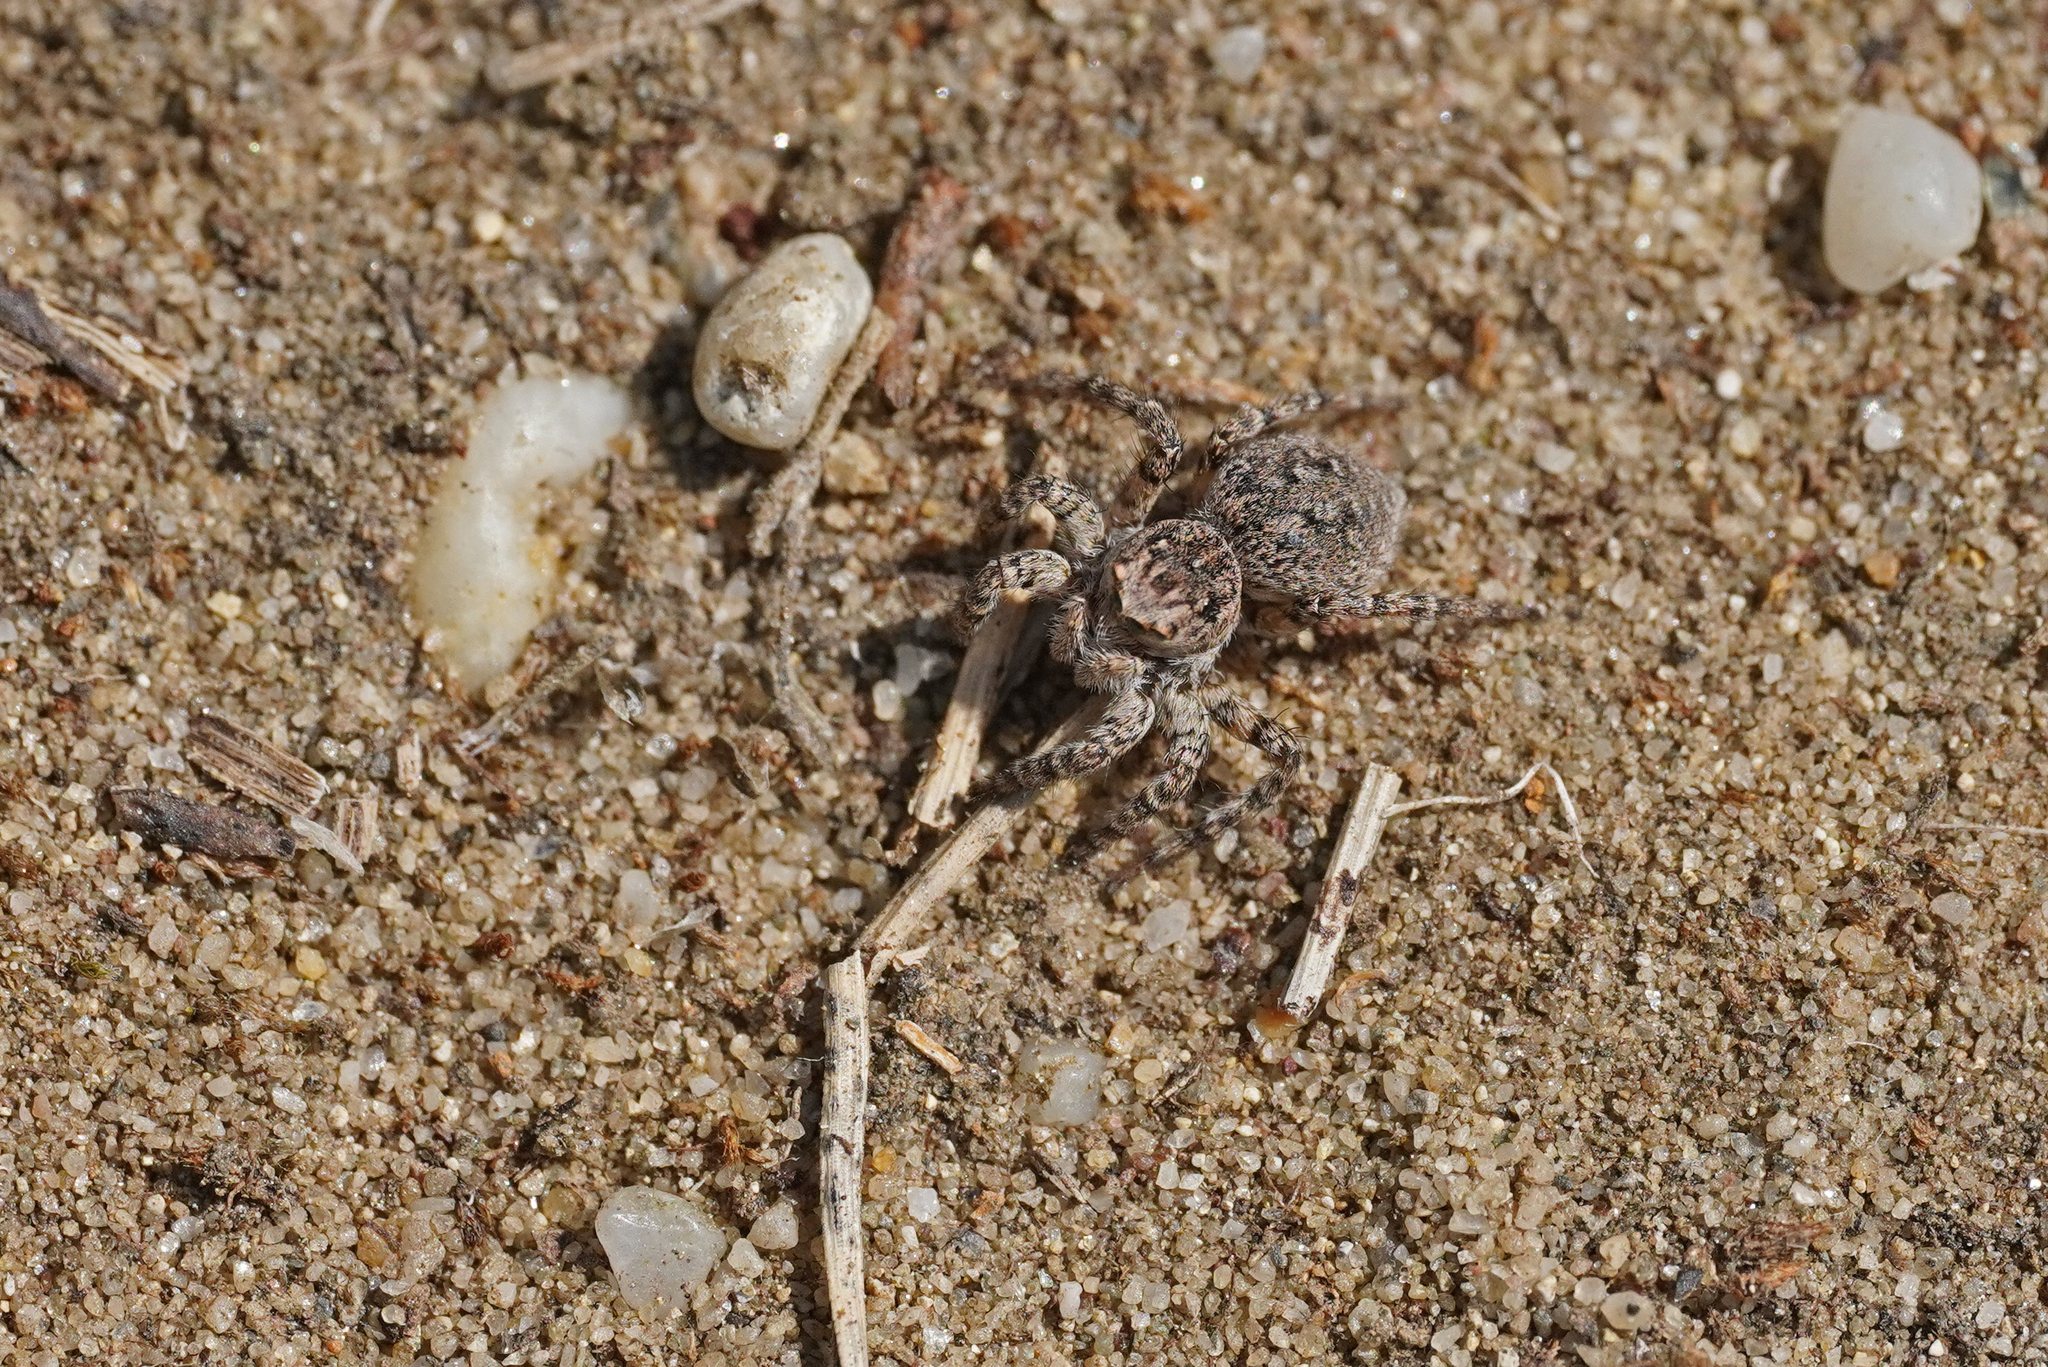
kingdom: Animalia
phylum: Arthropoda
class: Arachnida
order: Araneae
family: Salticidae
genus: Aelurillus
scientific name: Aelurillus v-insignitus
